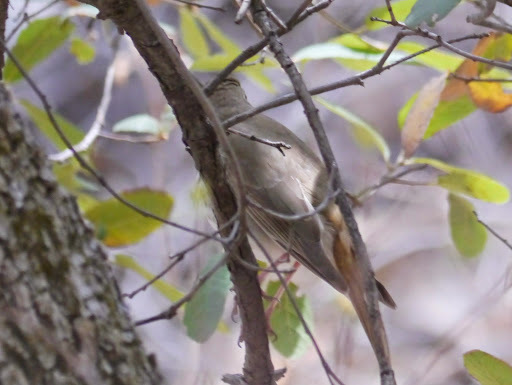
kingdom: Animalia
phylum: Chordata
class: Aves
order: Passeriformes
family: Turdidae
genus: Catharus
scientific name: Catharus guttatus
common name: Hermit thrush
